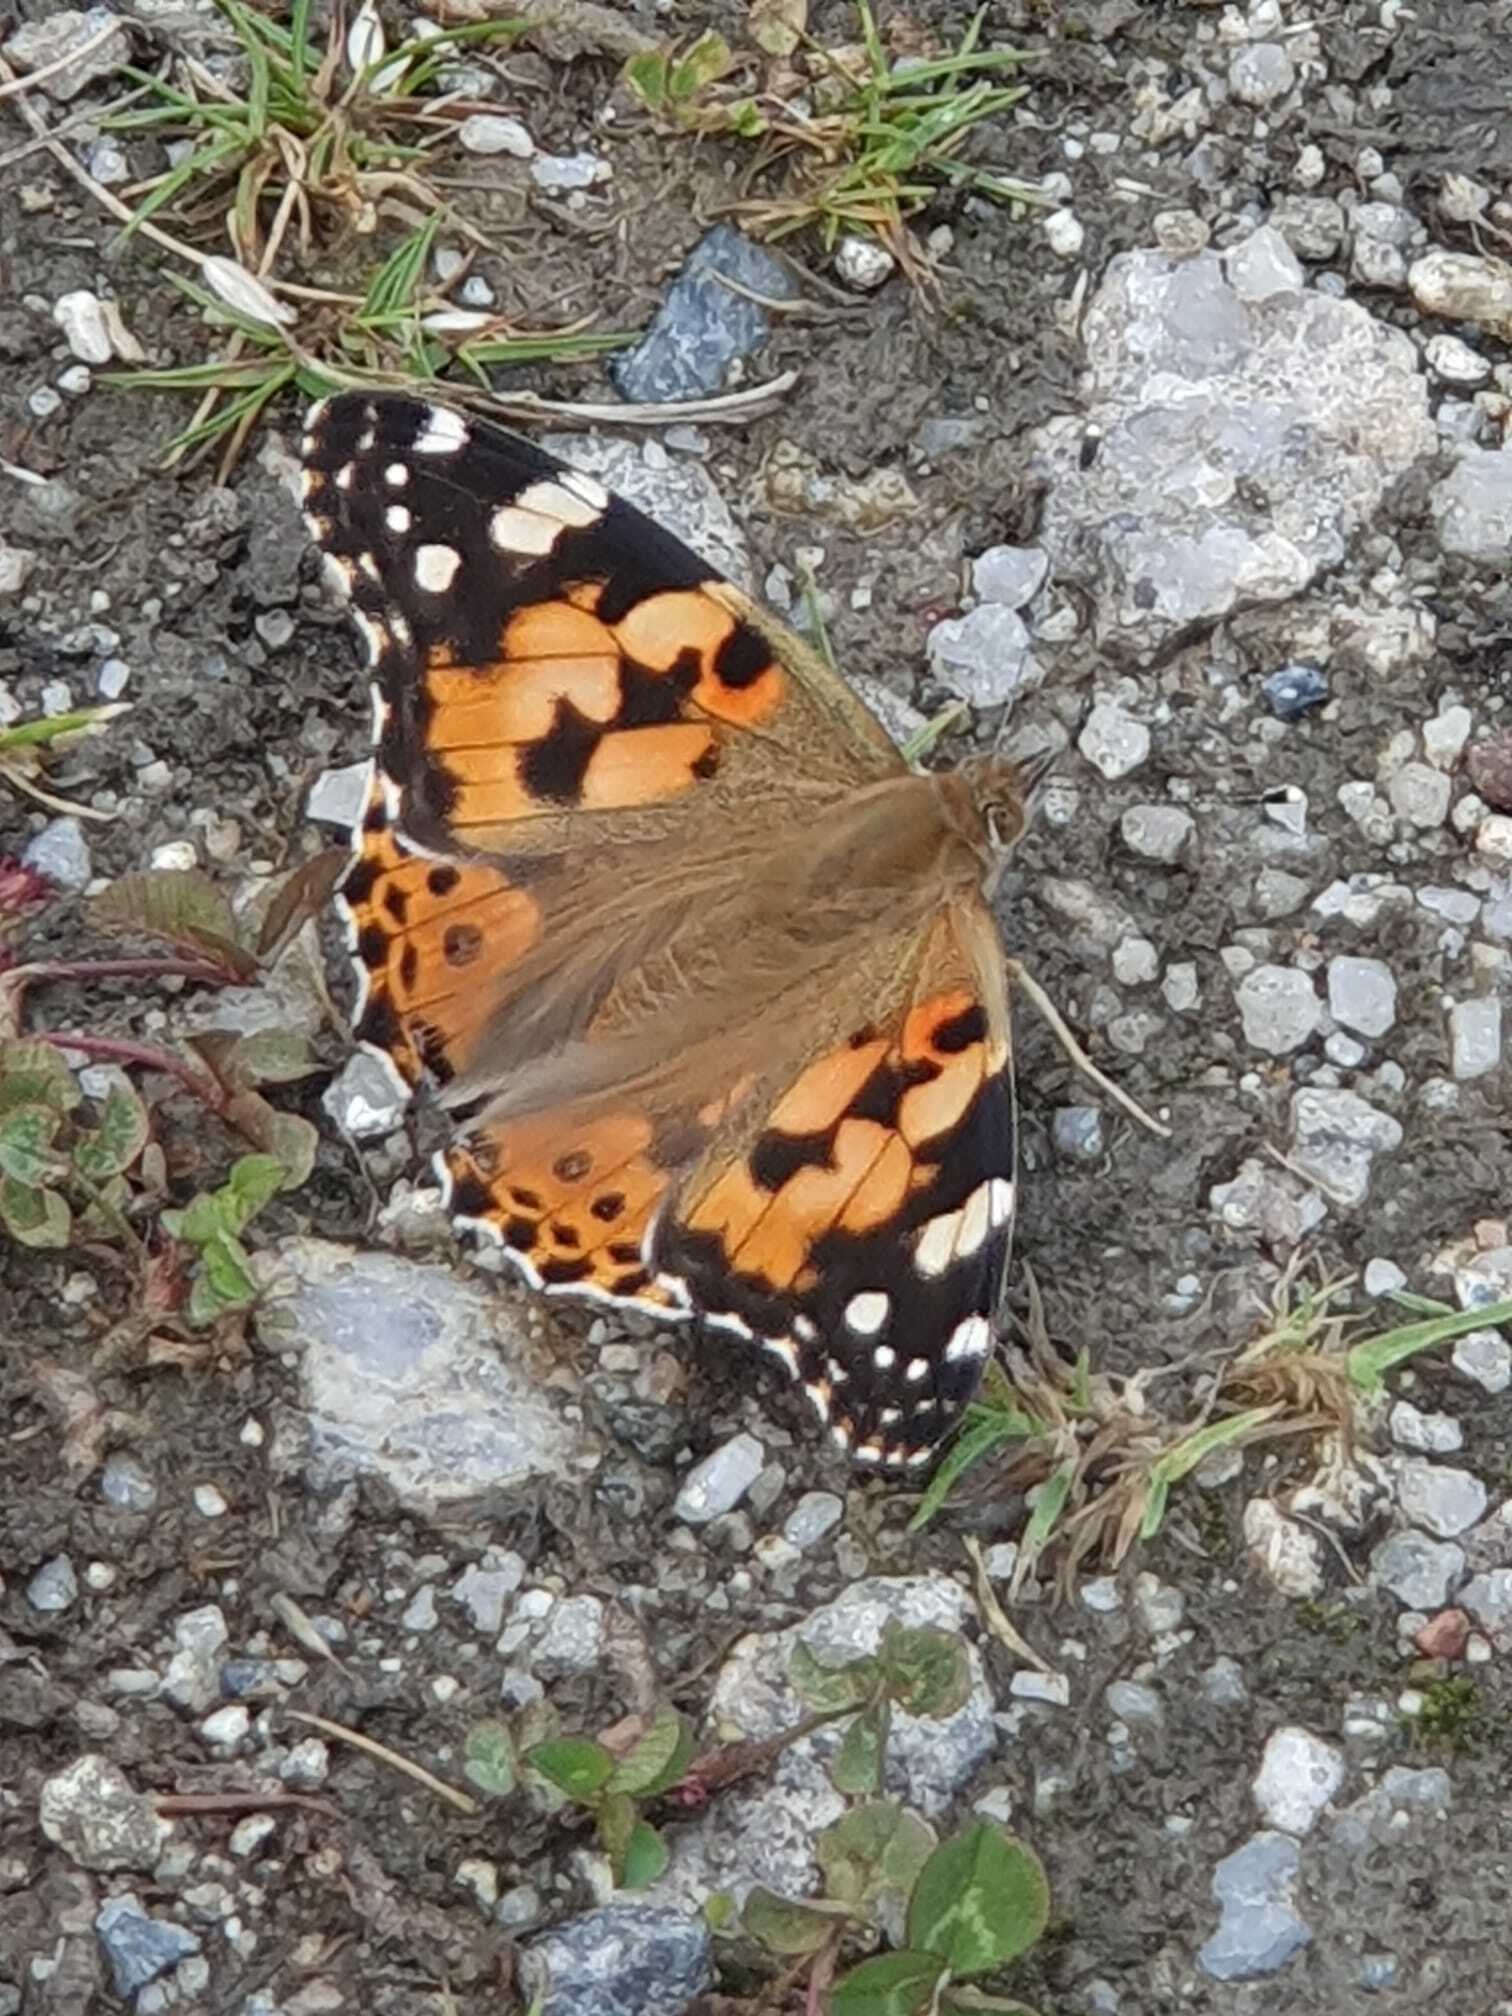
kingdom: Animalia
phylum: Arthropoda
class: Insecta
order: Lepidoptera
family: Nymphalidae
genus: Vanessa
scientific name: Vanessa cardui
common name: Painted lady
